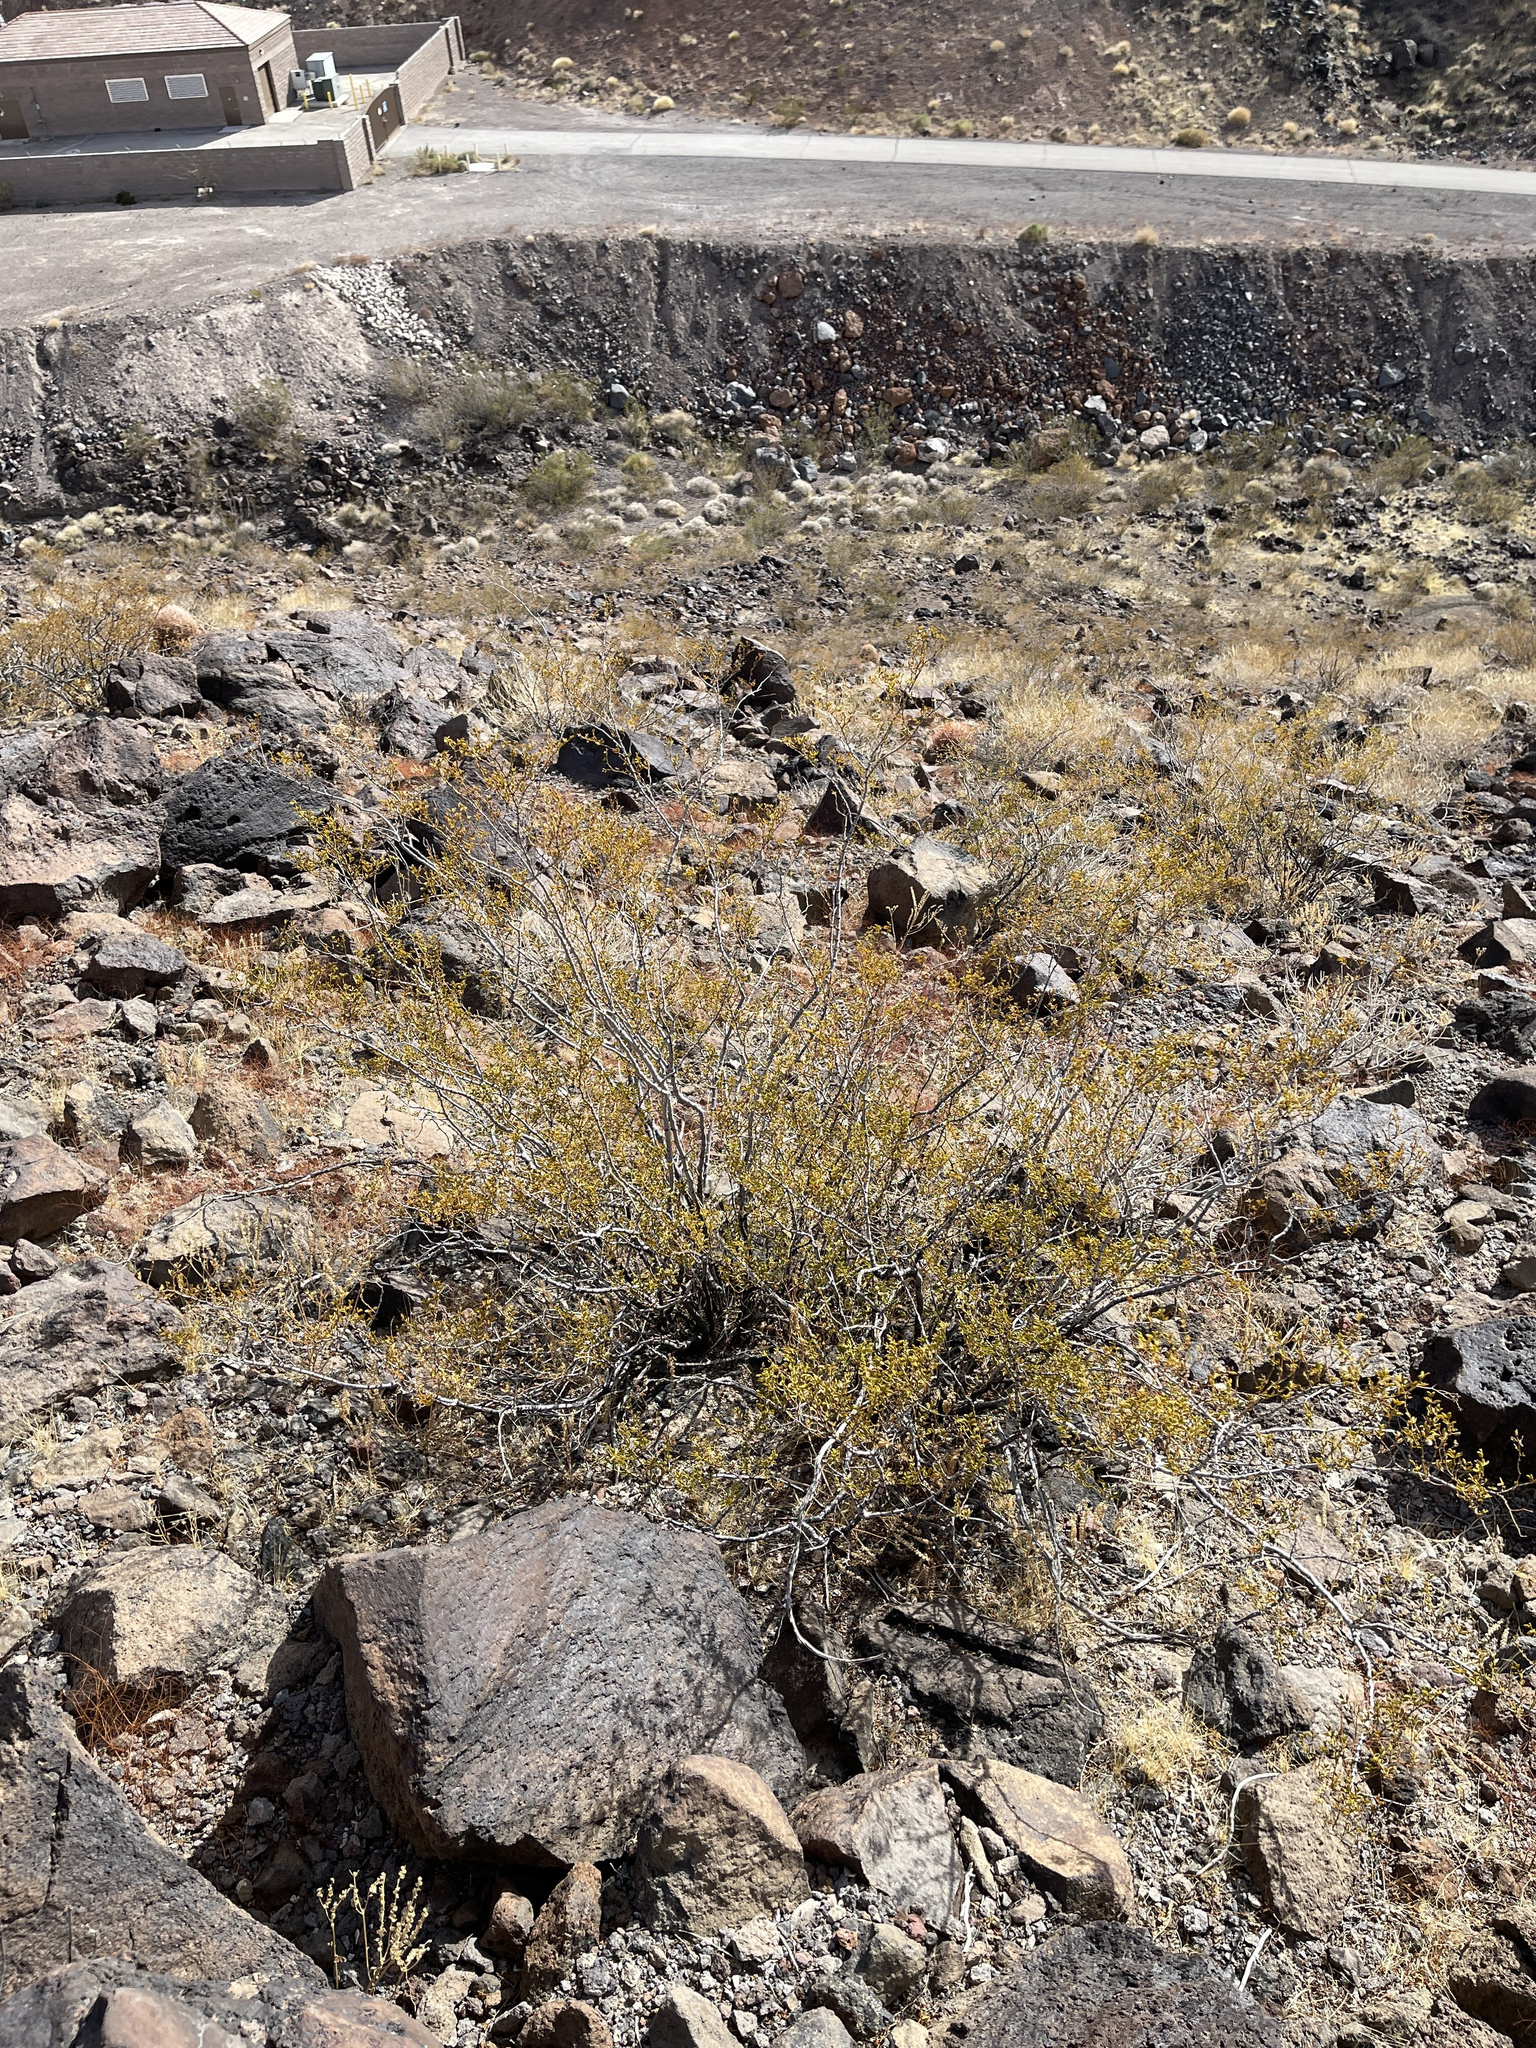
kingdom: Plantae
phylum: Tracheophyta
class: Magnoliopsida
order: Zygophyllales
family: Zygophyllaceae
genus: Larrea
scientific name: Larrea tridentata
